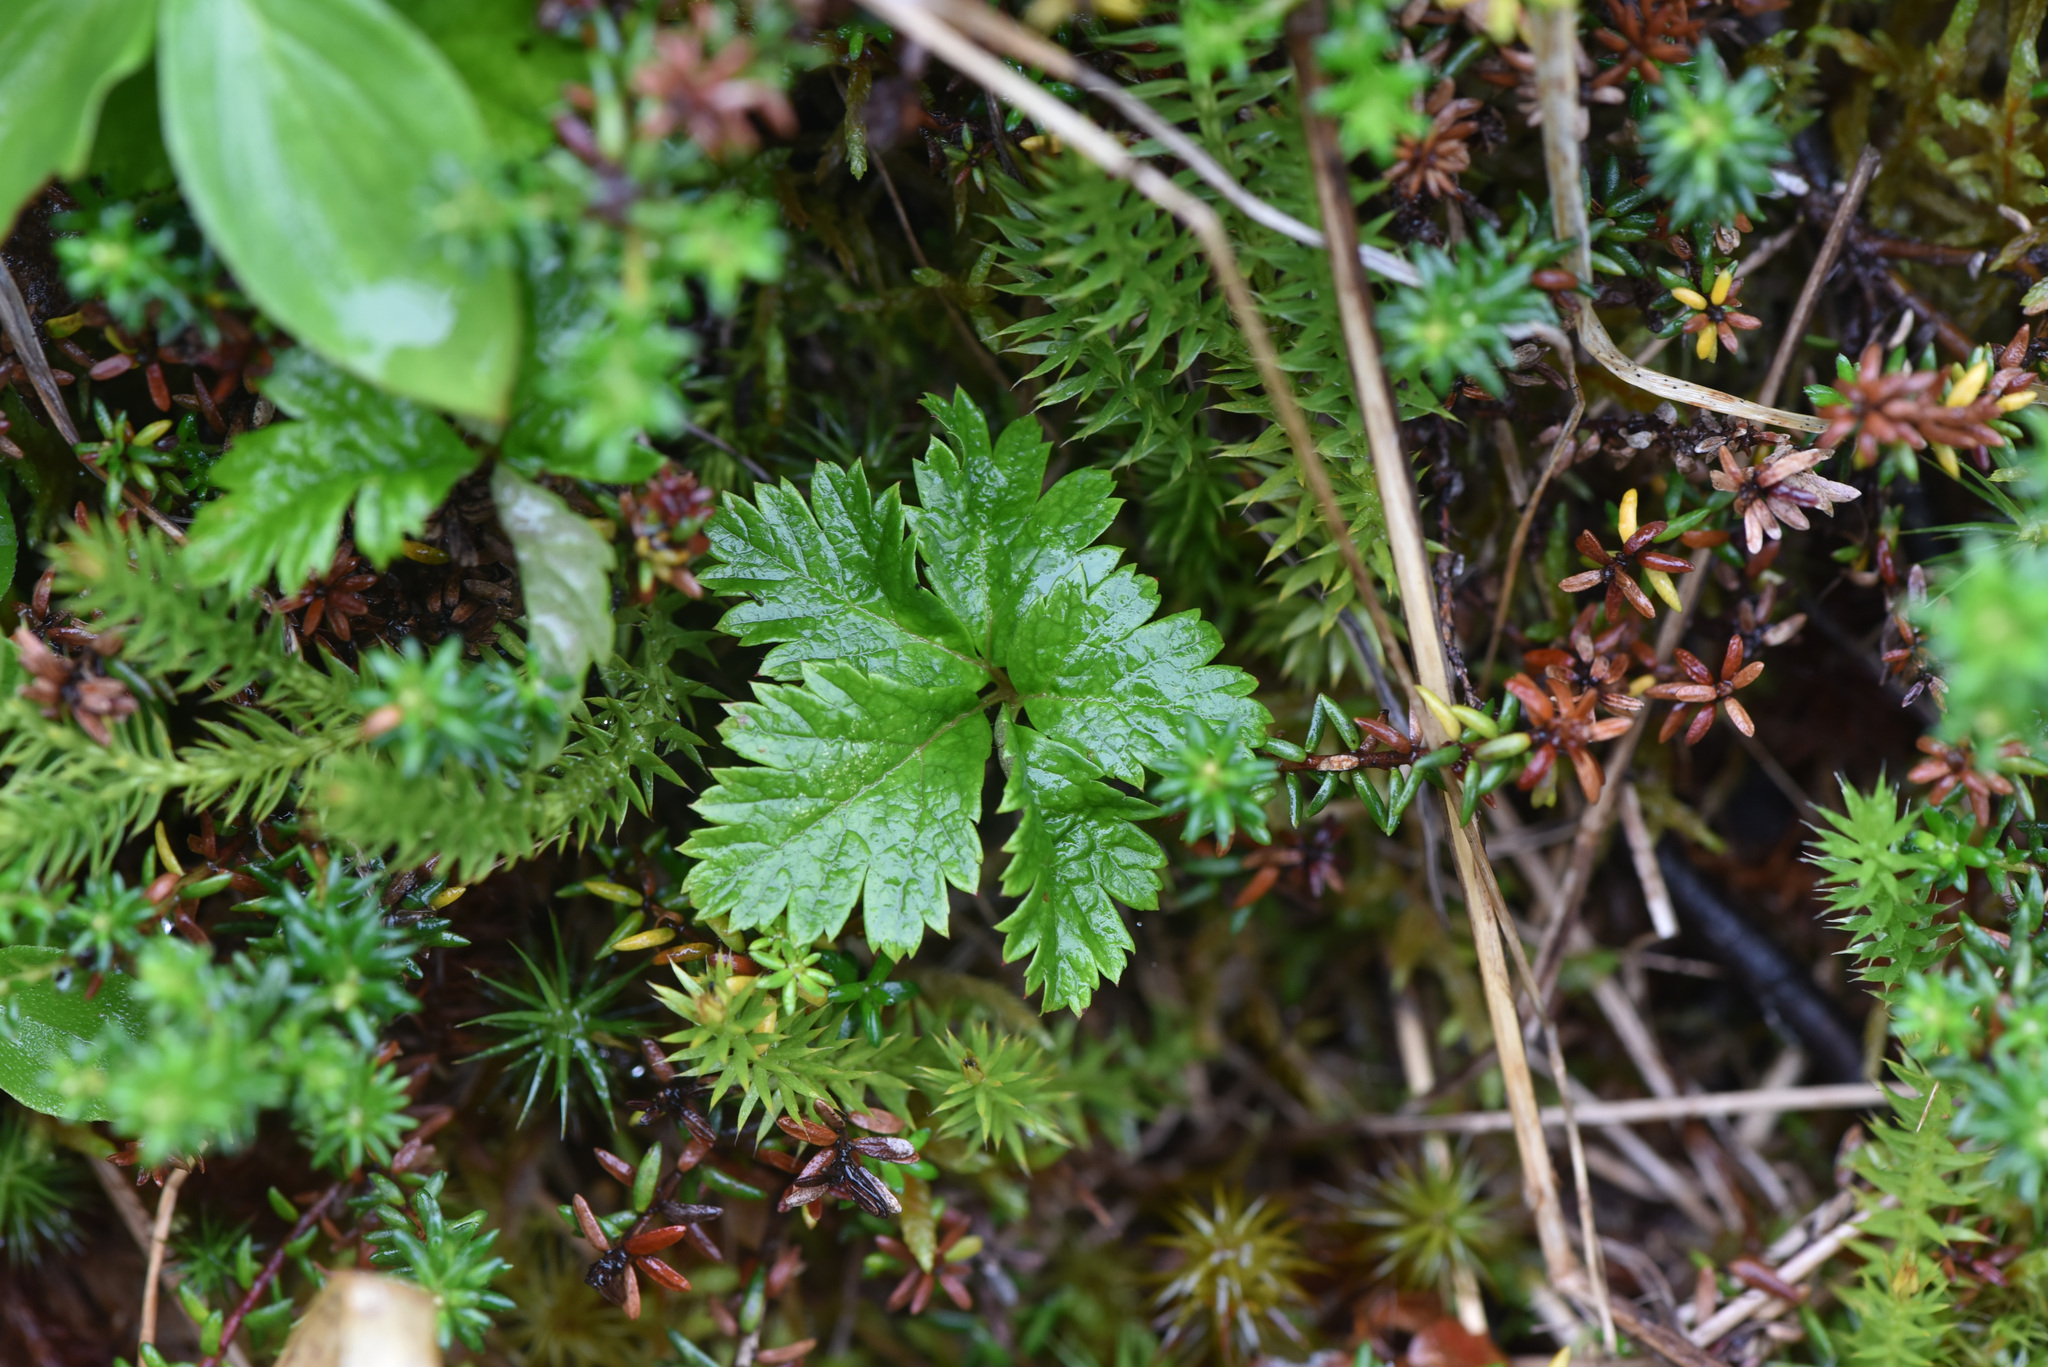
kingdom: Plantae
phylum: Tracheophyta
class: Magnoliopsida
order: Rosales
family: Rosaceae
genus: Rubus
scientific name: Rubus pedatus
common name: Creeping raspberry
